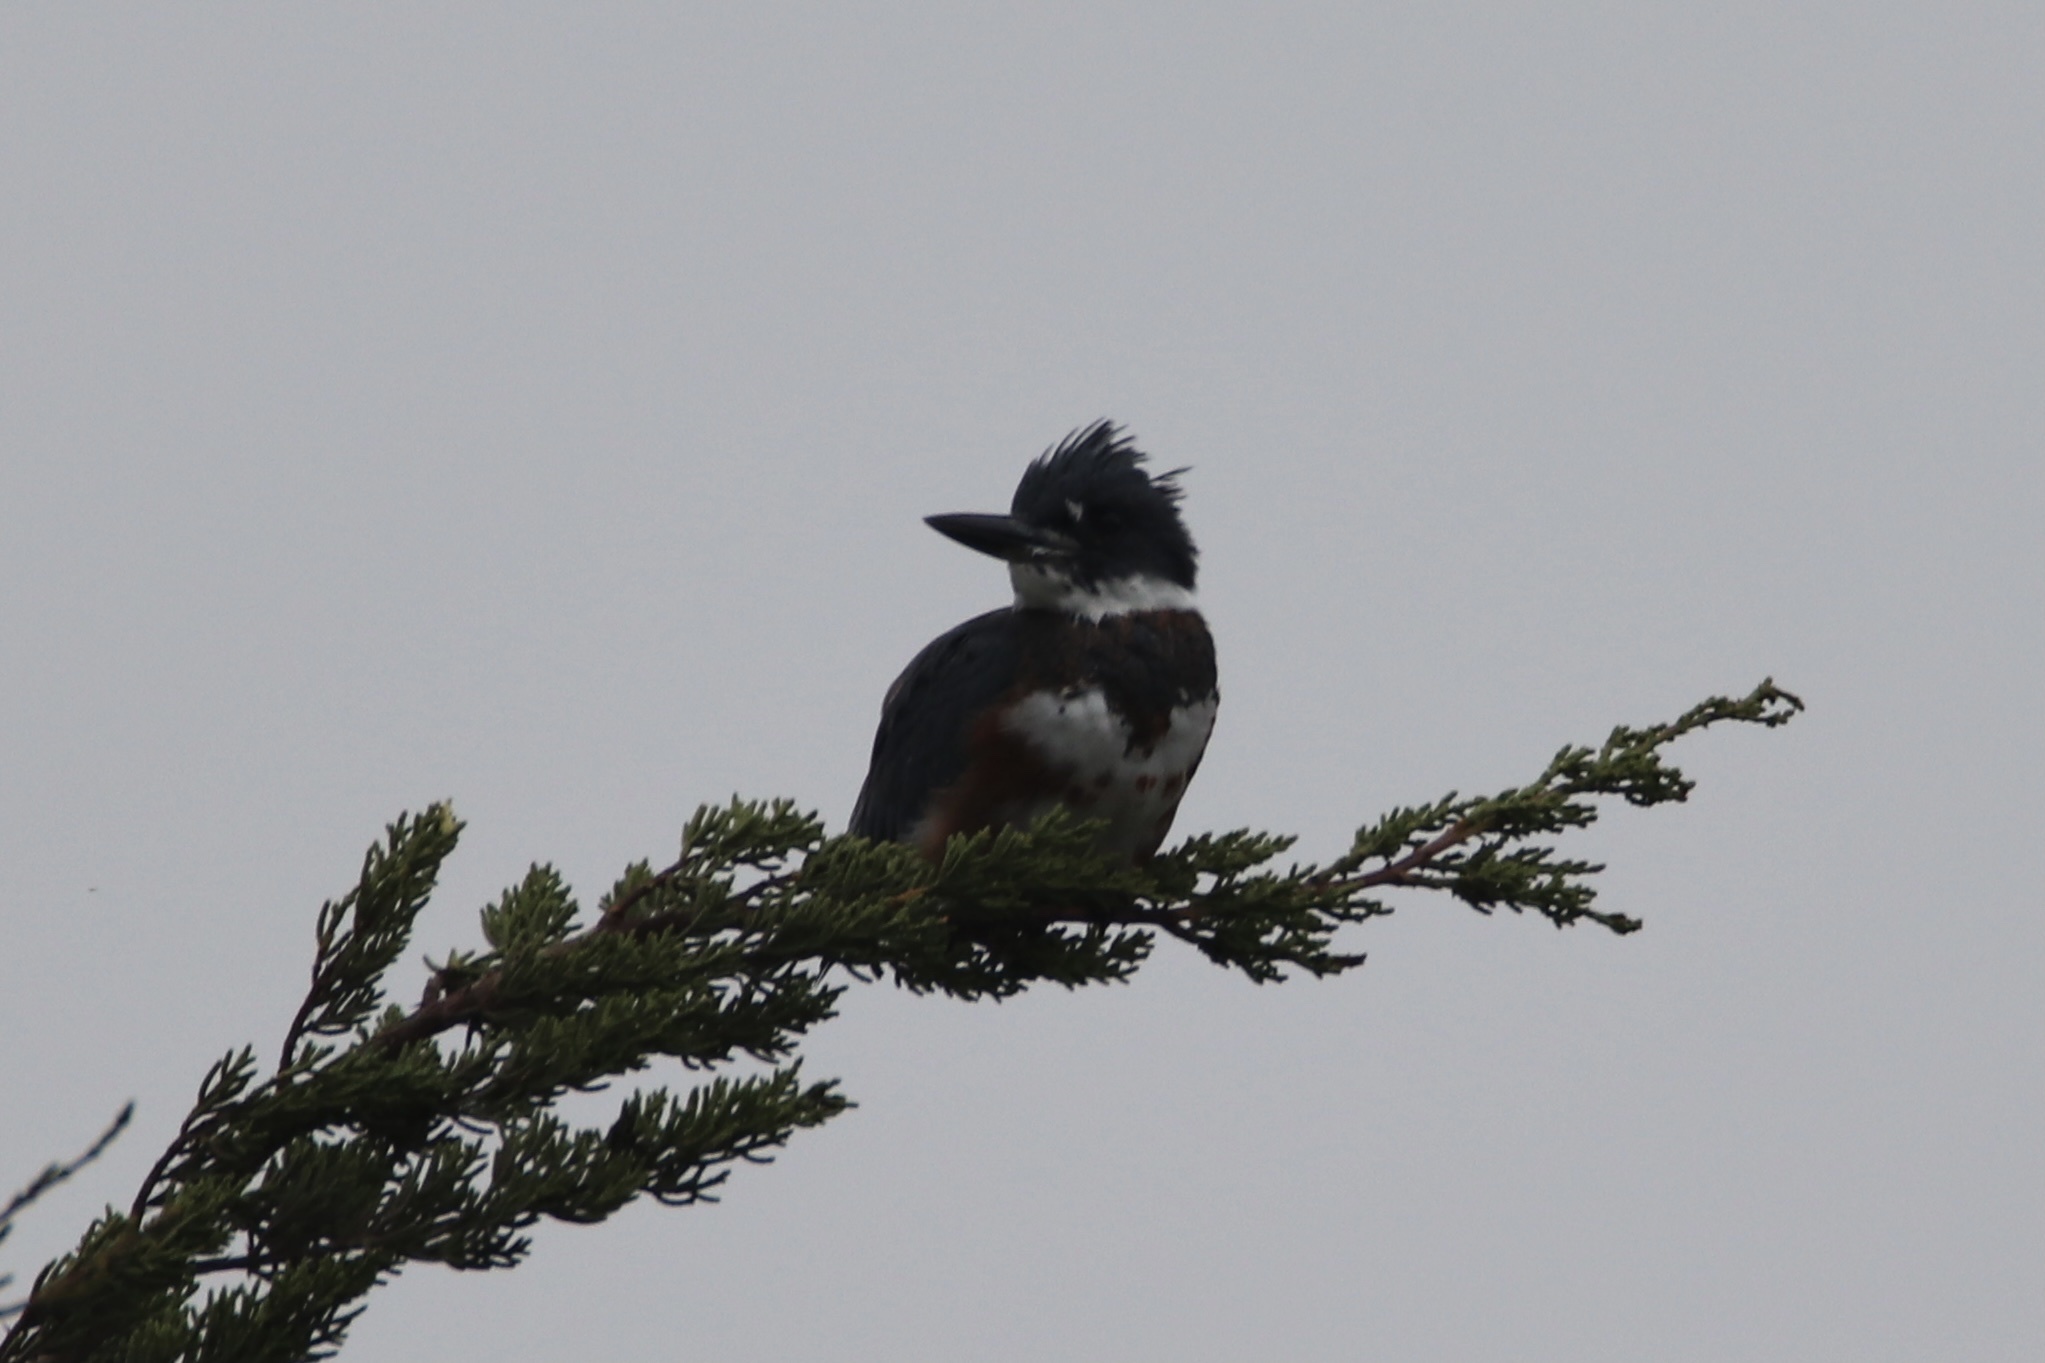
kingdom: Animalia
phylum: Chordata
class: Aves
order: Coraciiformes
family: Alcedinidae
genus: Megaceryle
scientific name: Megaceryle alcyon
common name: Belted kingfisher
